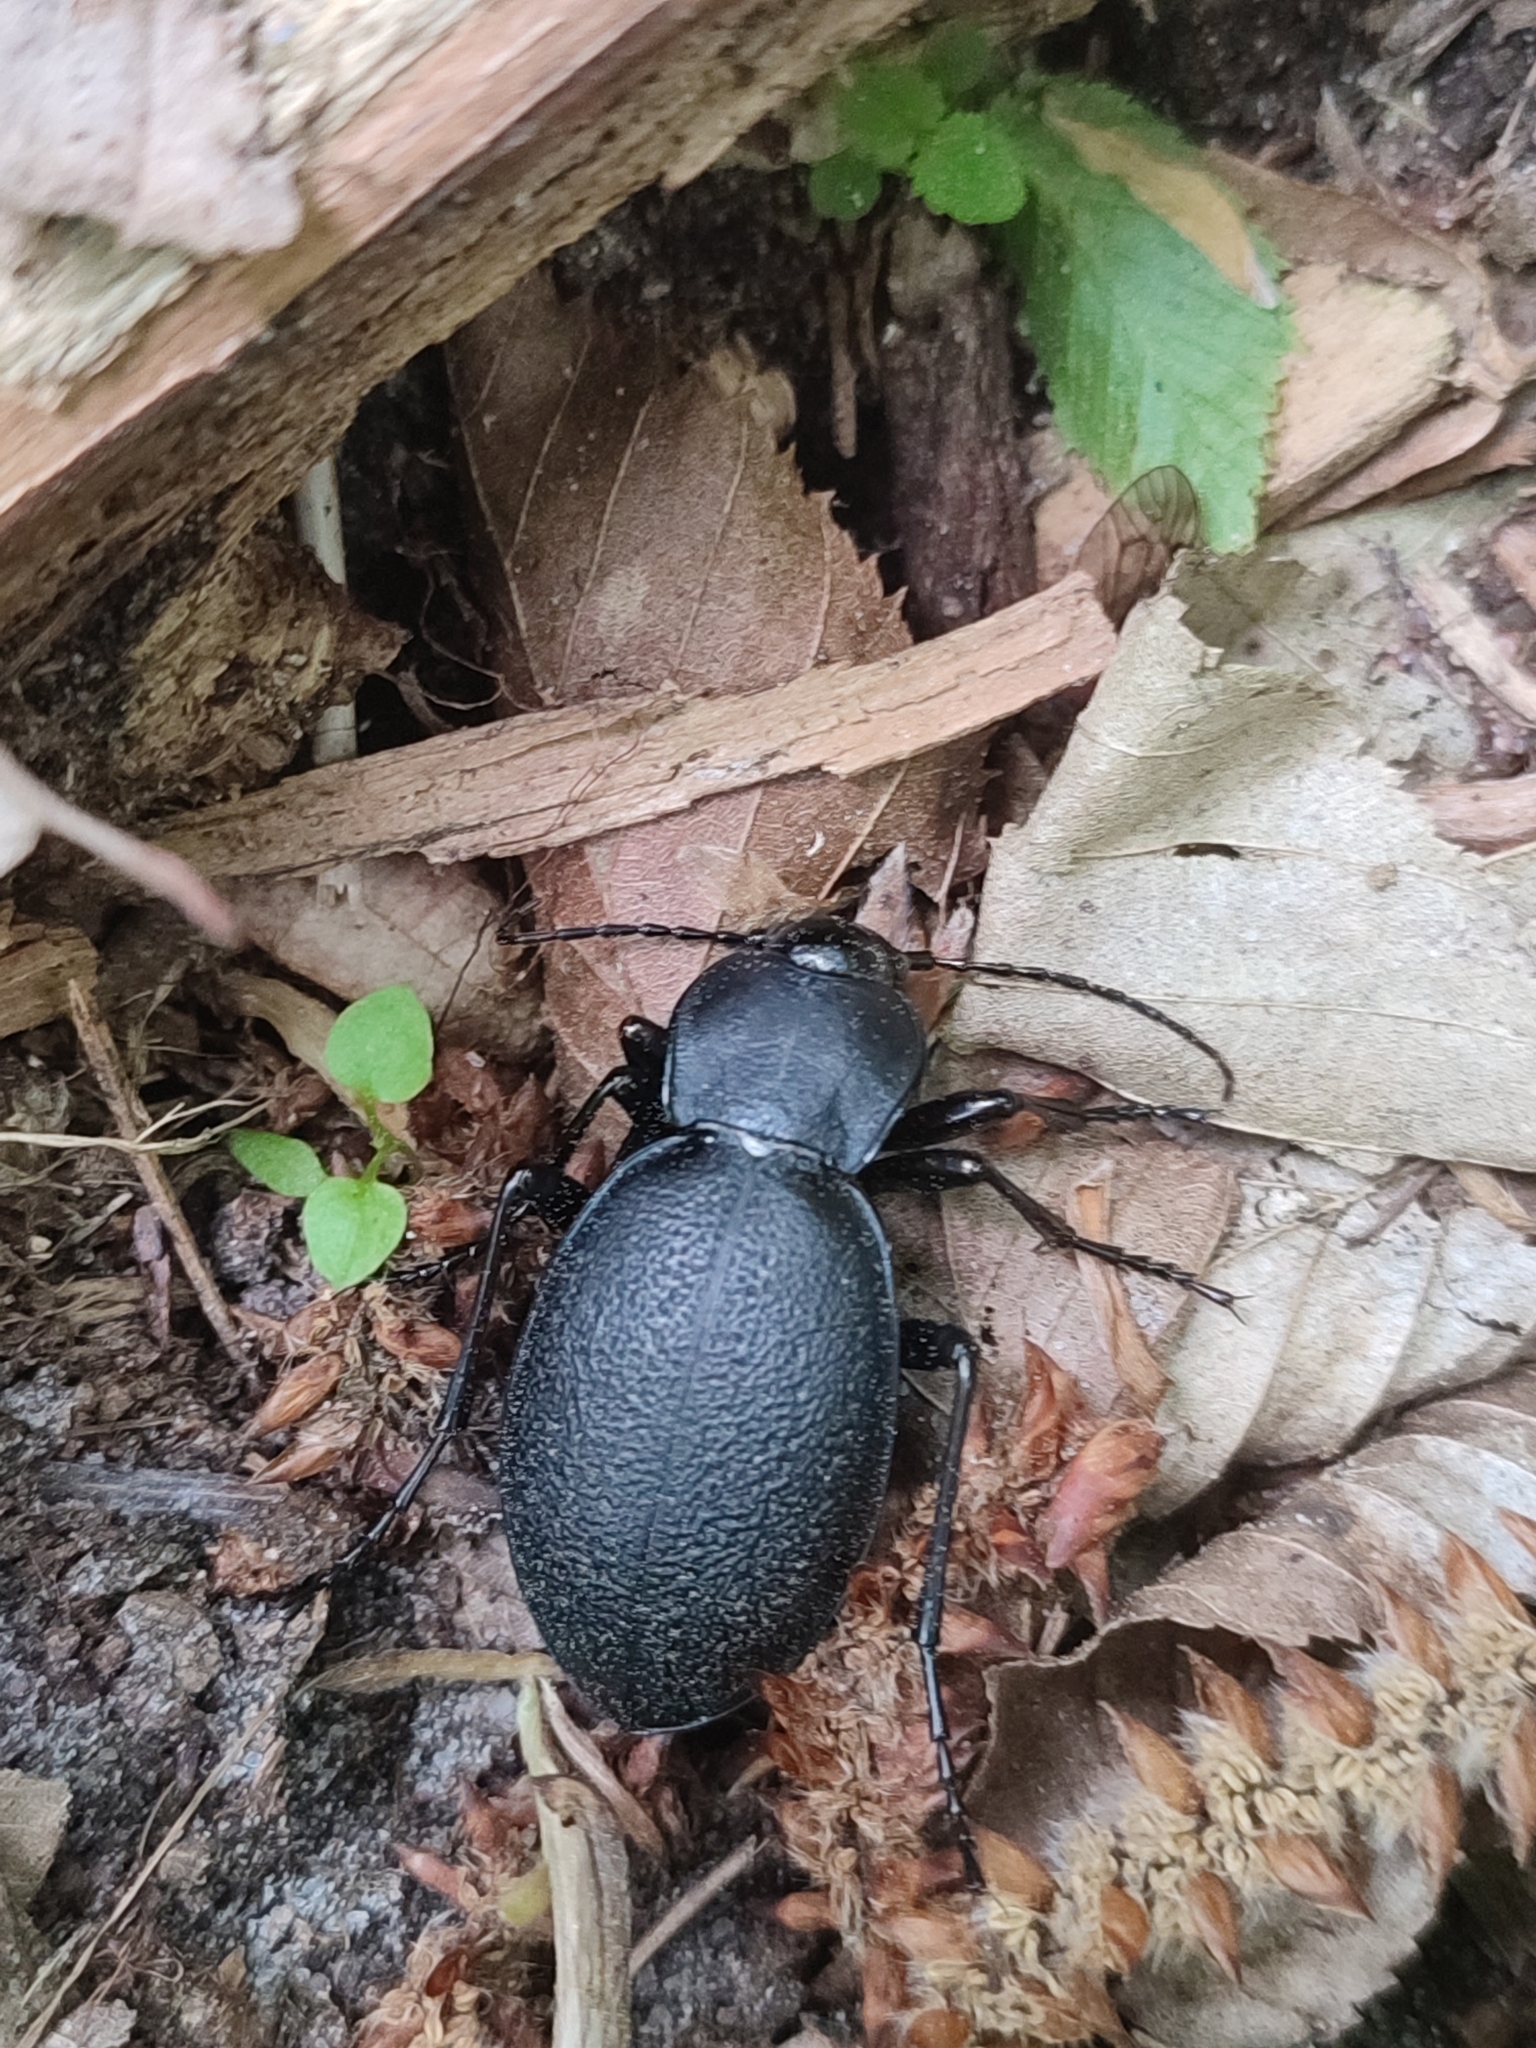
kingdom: Animalia
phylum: Arthropoda
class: Insecta
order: Coleoptera
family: Carabidae
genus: Carabus
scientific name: Carabus coriaceus
